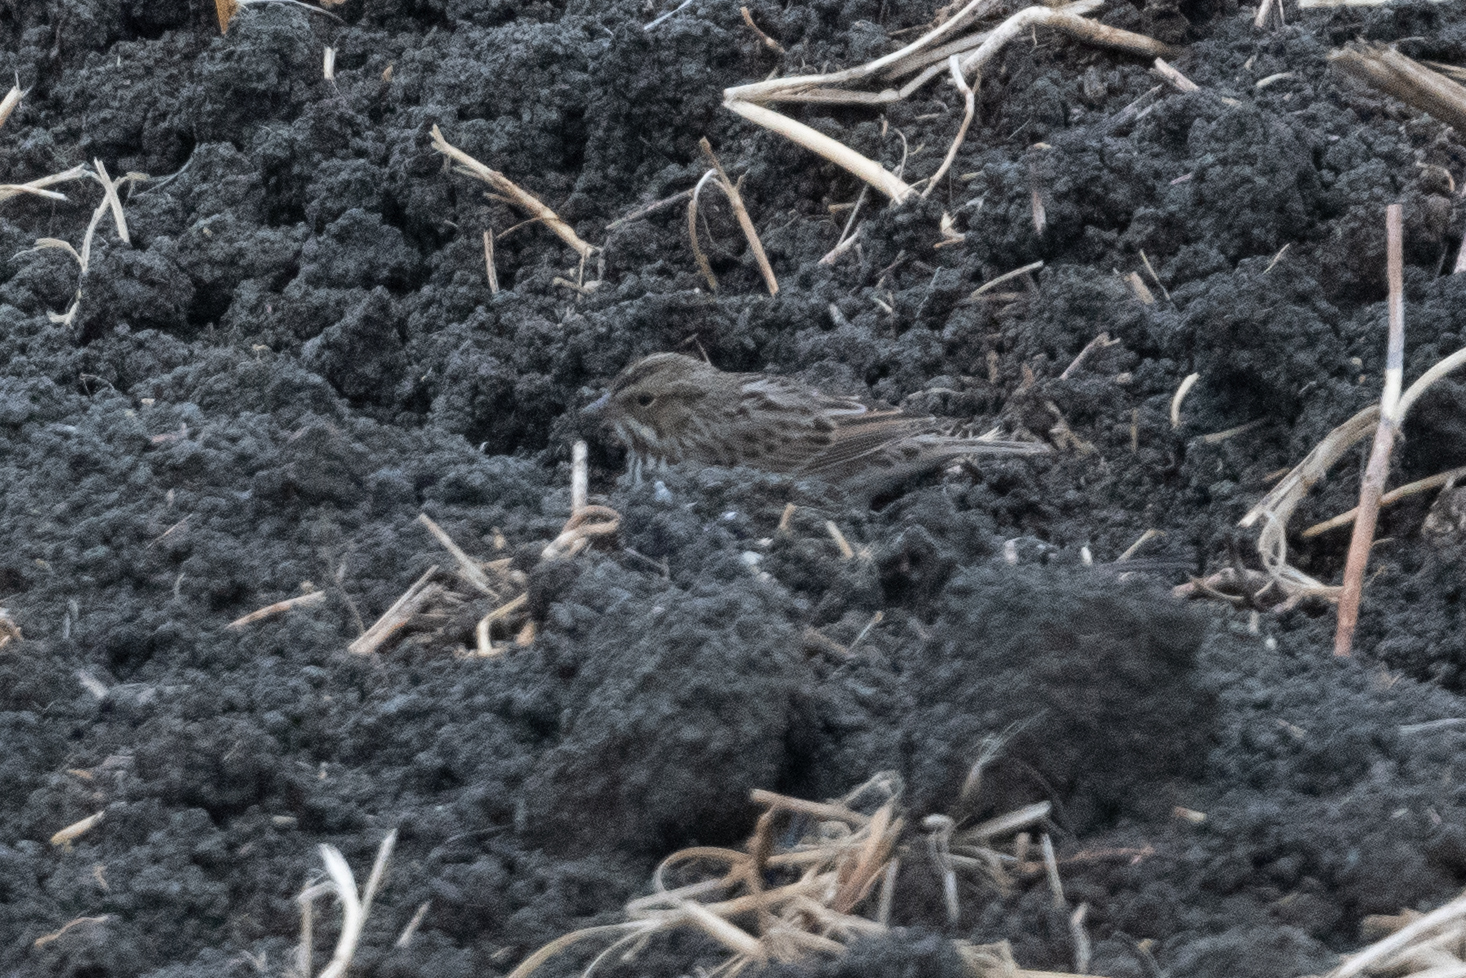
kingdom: Animalia
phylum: Chordata
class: Aves
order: Passeriformes
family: Passerellidae
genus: Passerculus
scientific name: Passerculus sandwichensis
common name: Savannah sparrow
